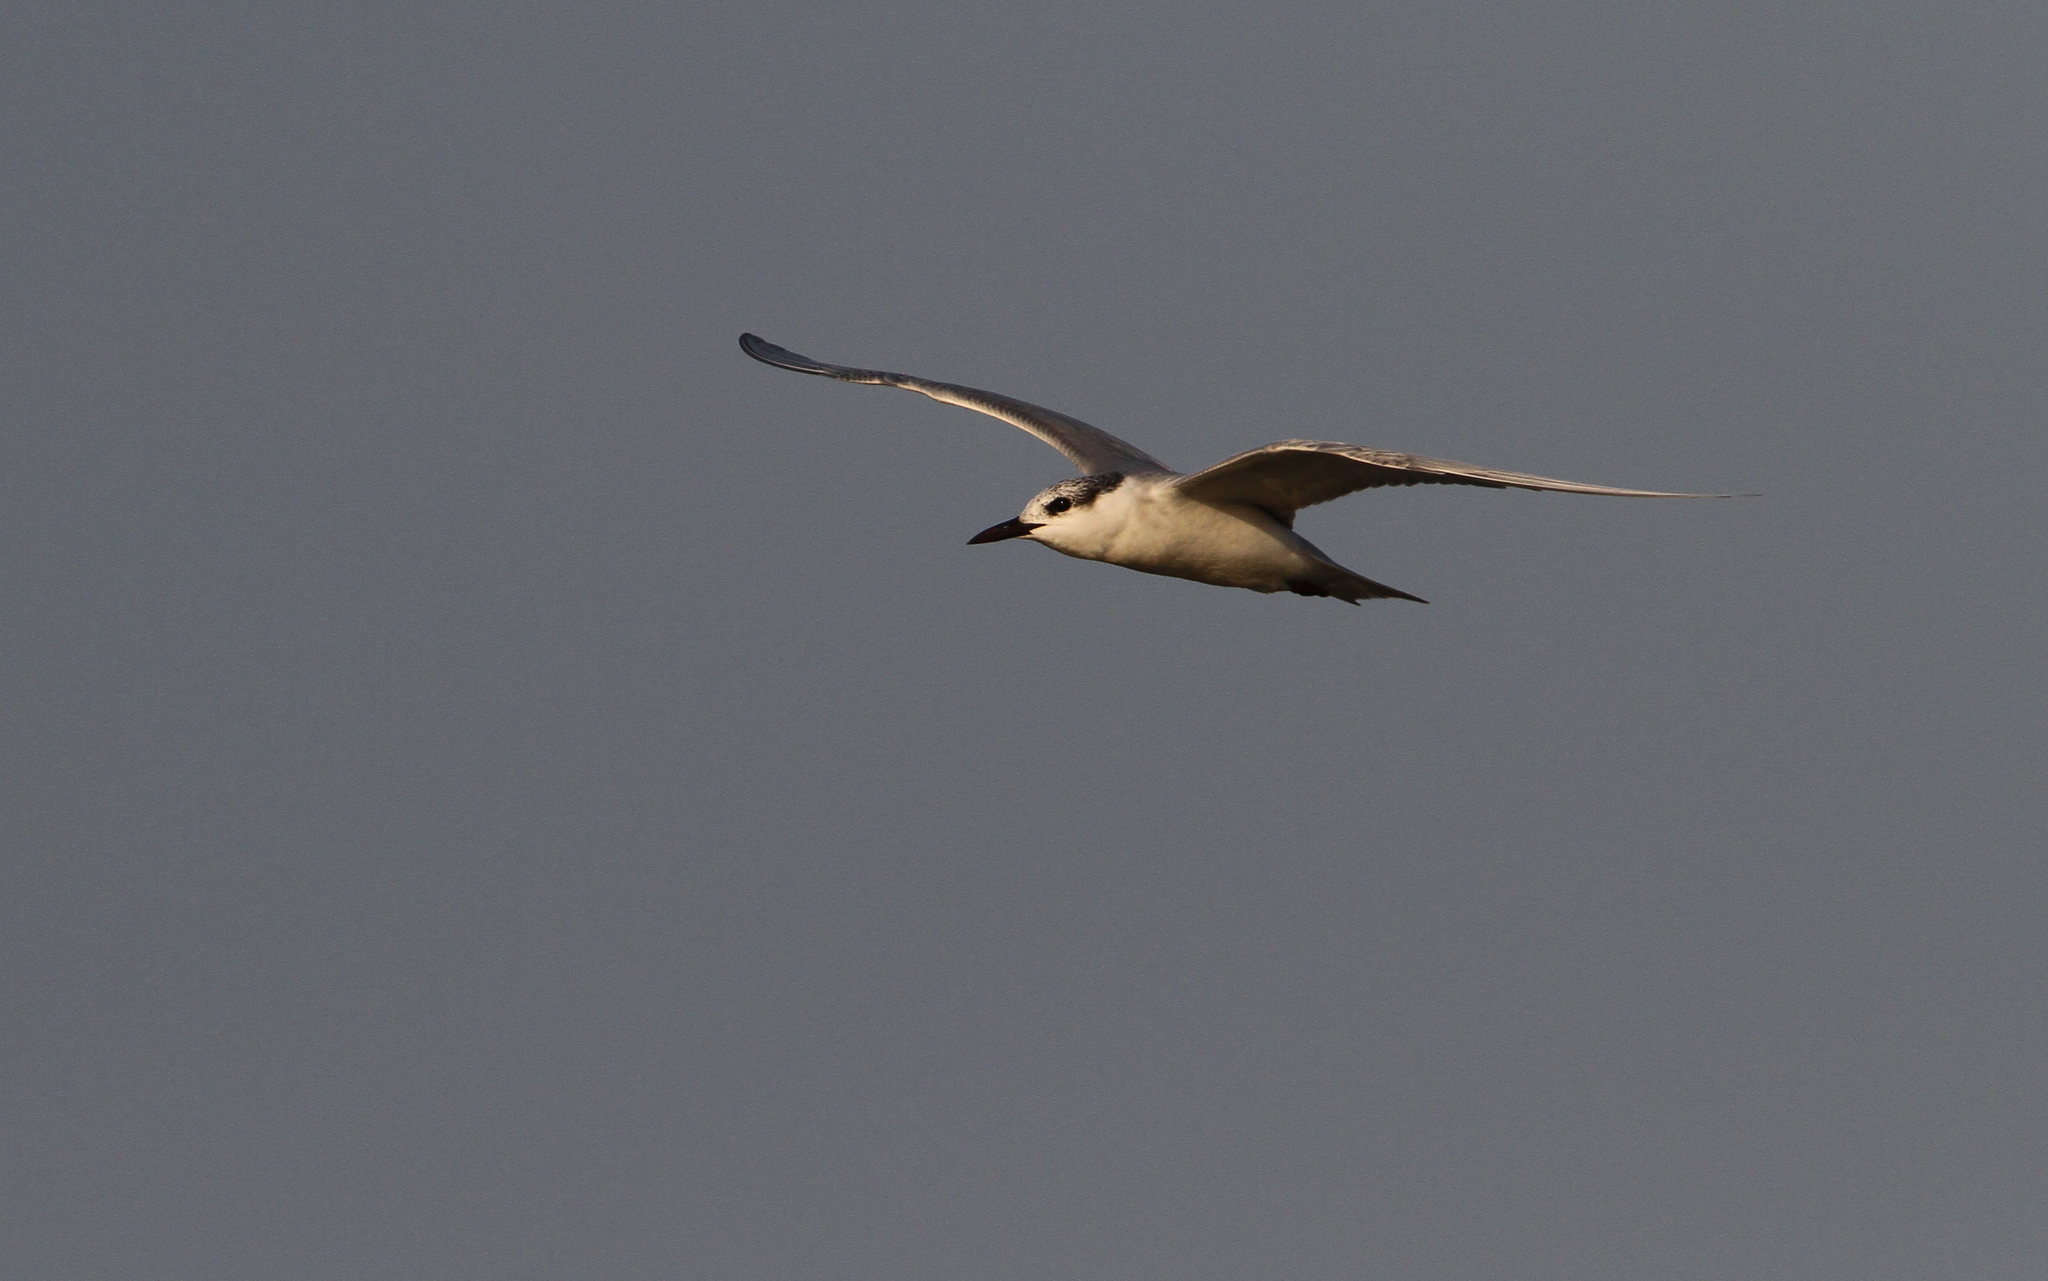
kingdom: Animalia
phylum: Chordata
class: Aves
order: Charadriiformes
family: Laridae
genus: Chlidonias
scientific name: Chlidonias hybrida
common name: Whiskered tern
